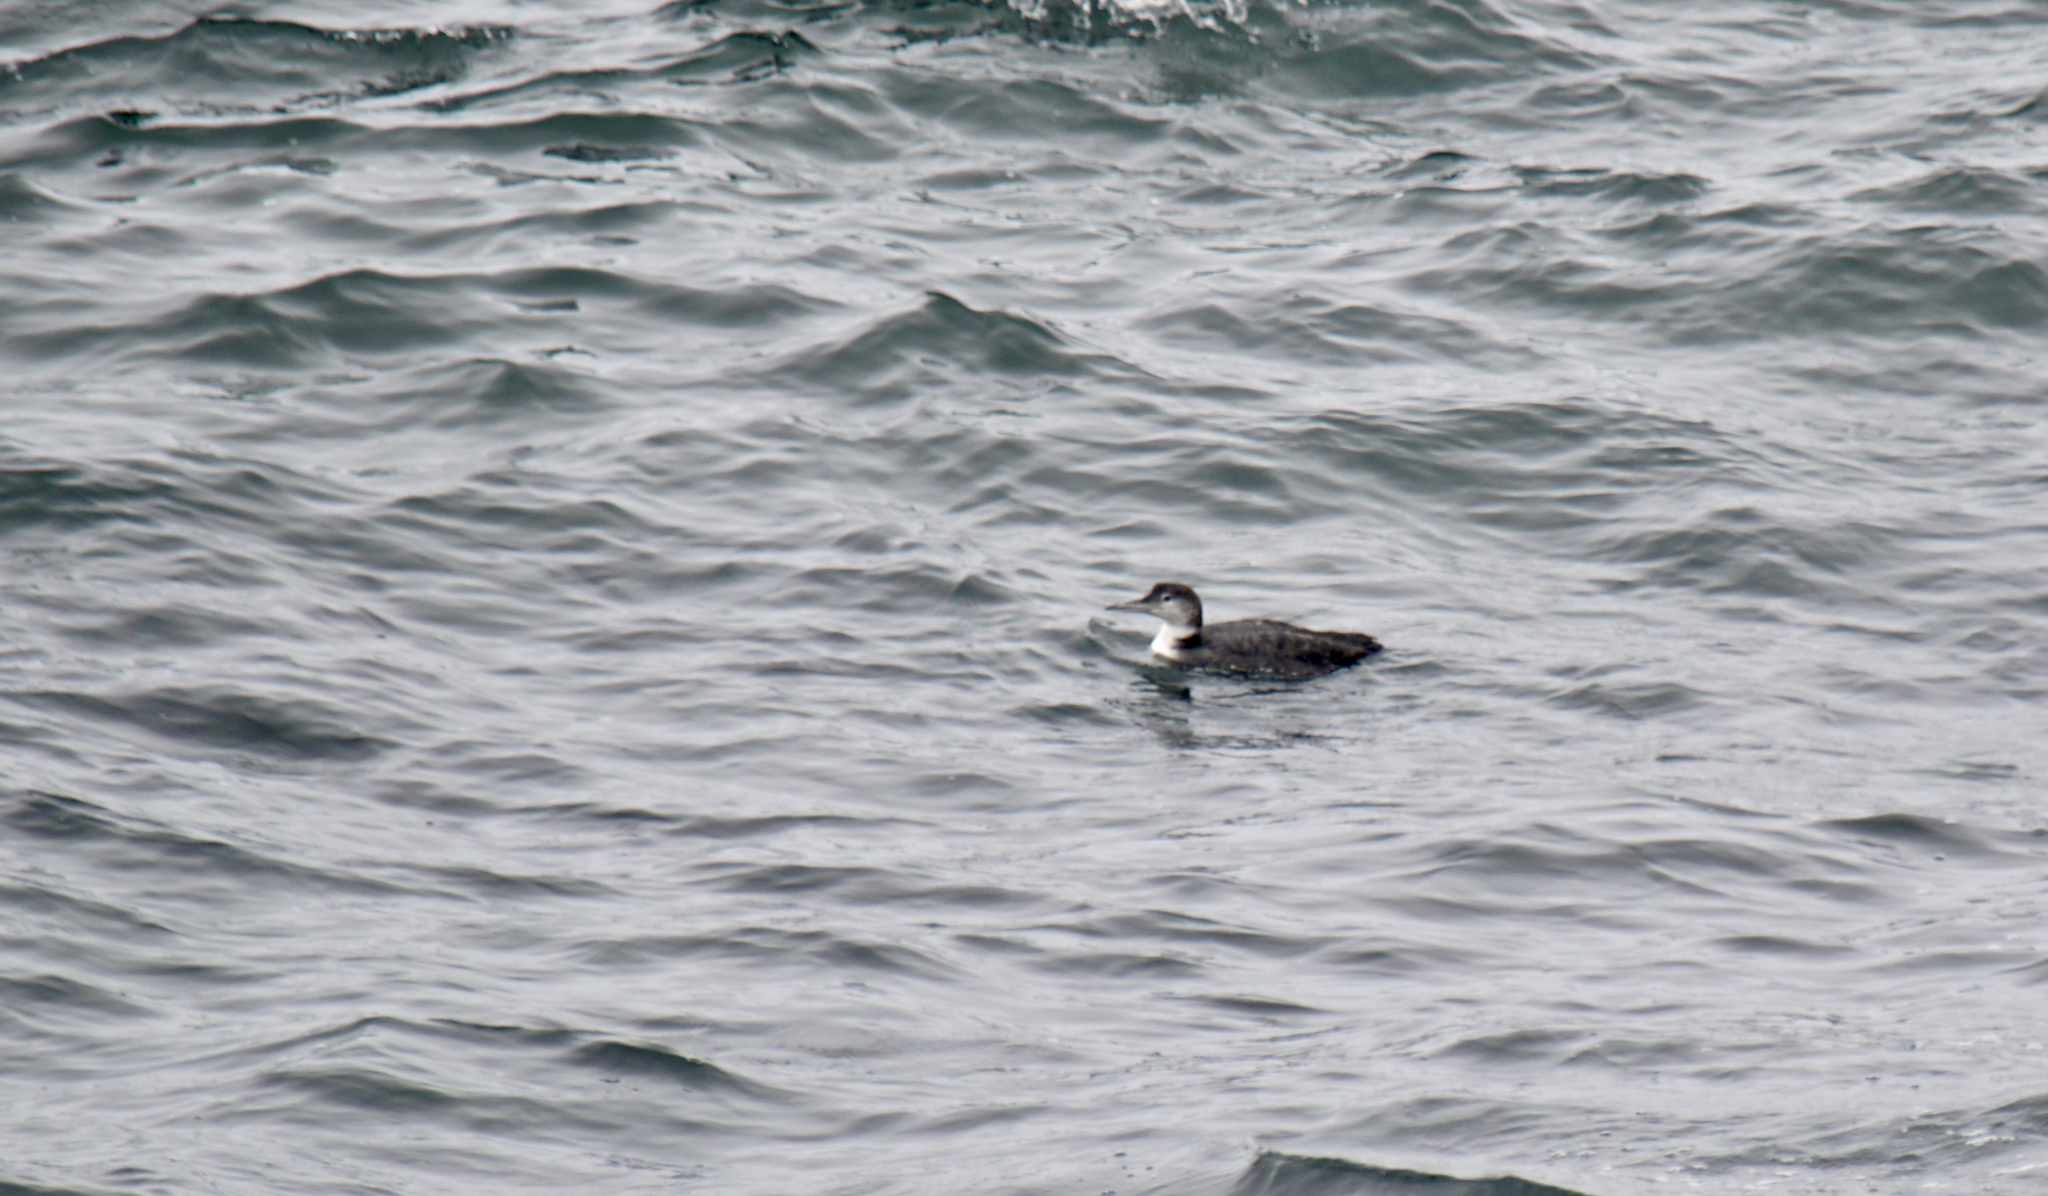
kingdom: Animalia
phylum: Chordata
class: Aves
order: Gaviiformes
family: Gaviidae
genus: Gavia
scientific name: Gavia immer
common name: Common loon
